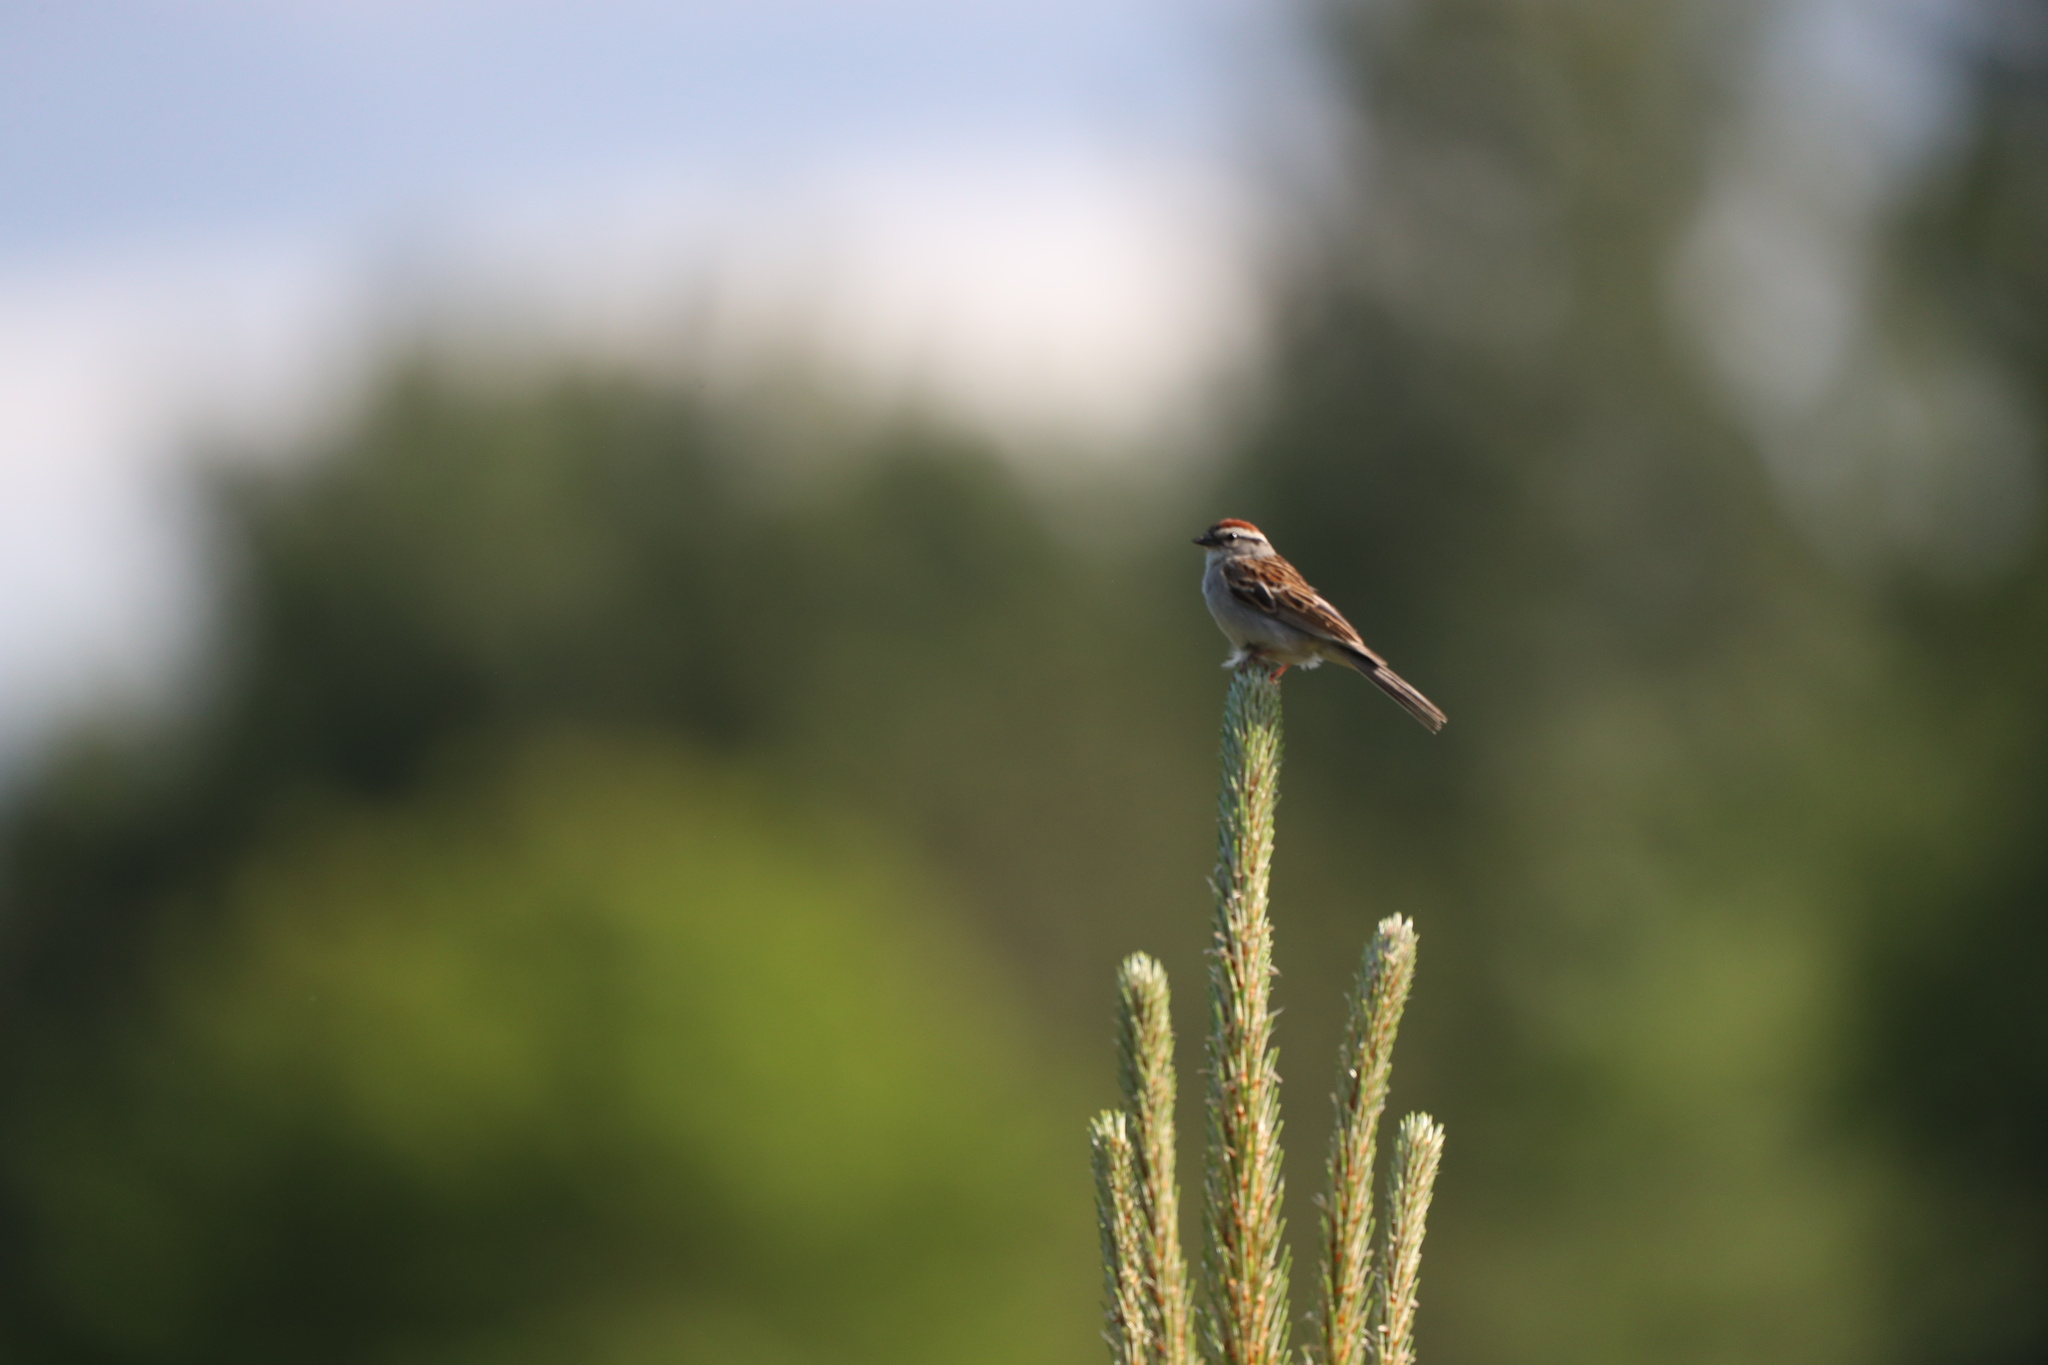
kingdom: Animalia
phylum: Chordata
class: Aves
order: Passeriformes
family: Passerellidae
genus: Spizella
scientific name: Spizella passerina
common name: Chipping sparrow
